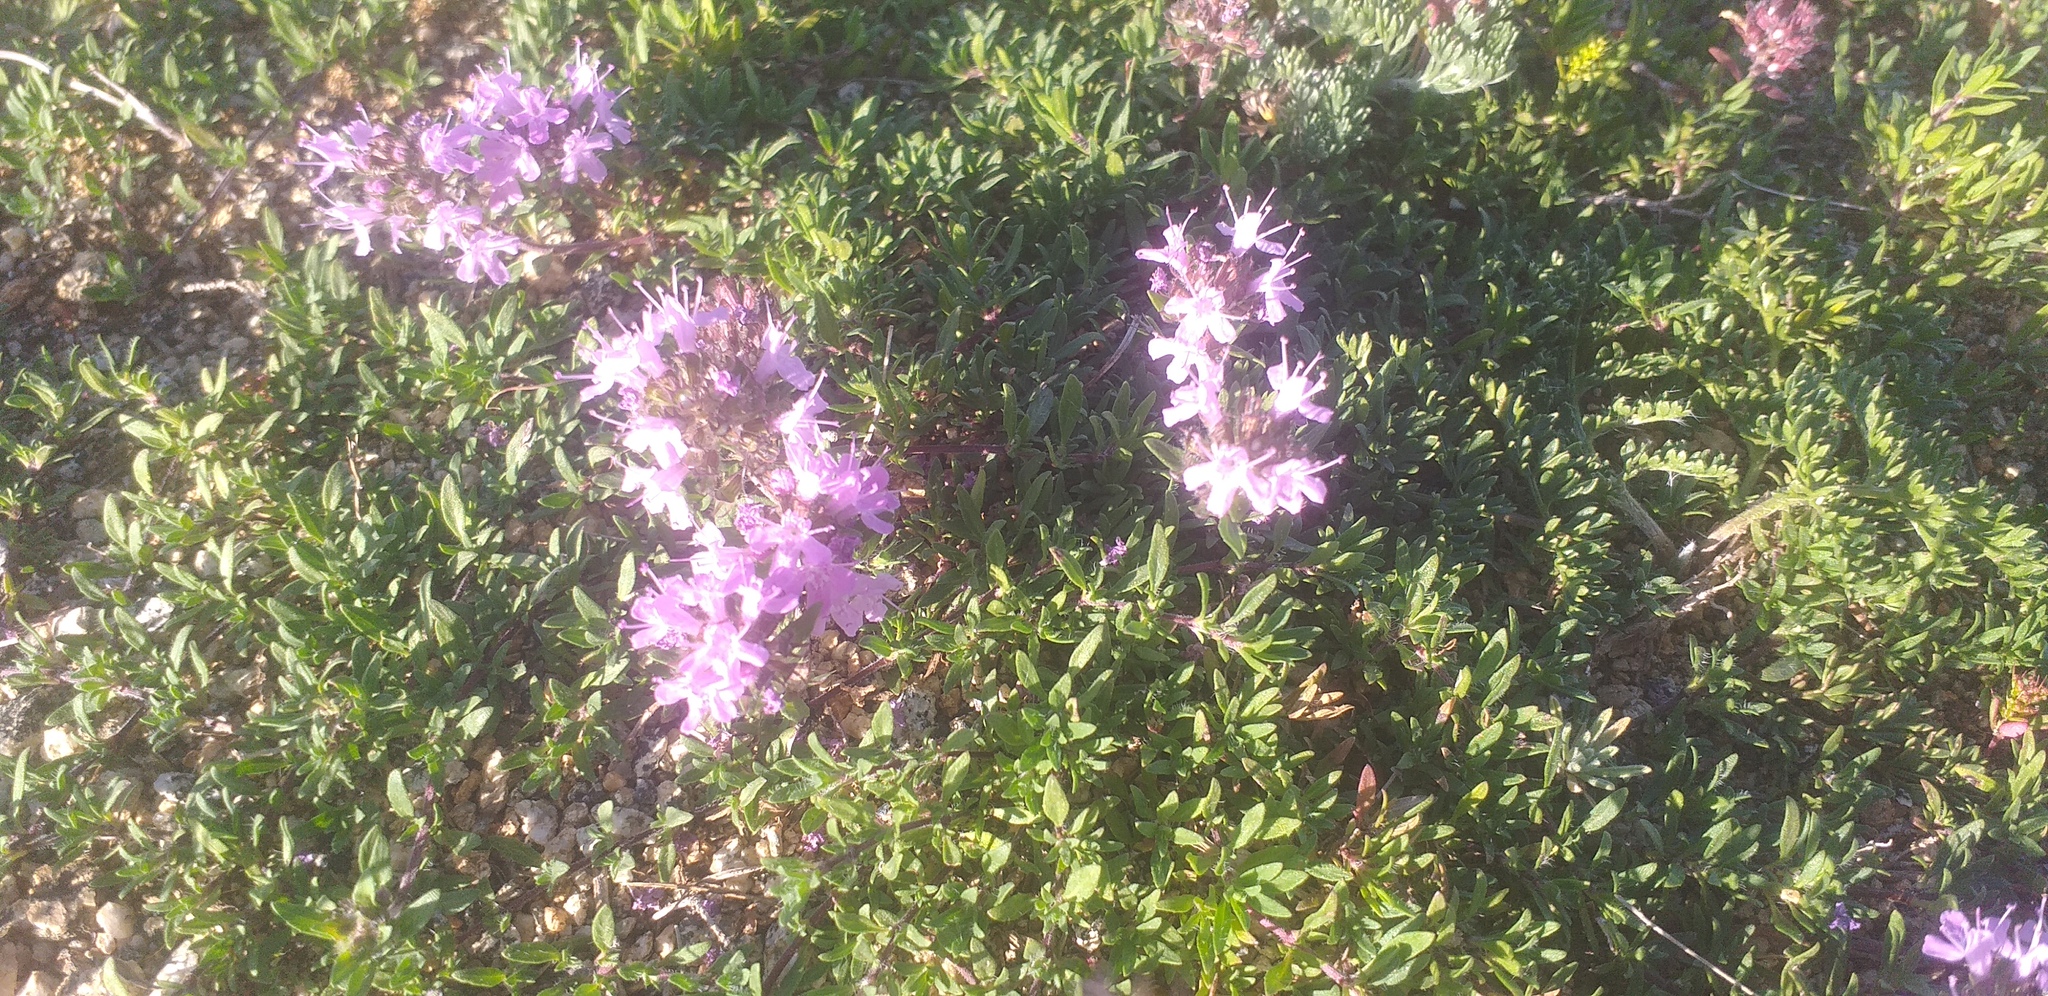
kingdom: Plantae
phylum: Tracheophyta
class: Magnoliopsida
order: Lamiales
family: Lamiaceae
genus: Thymus
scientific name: Thymus baicalensis
